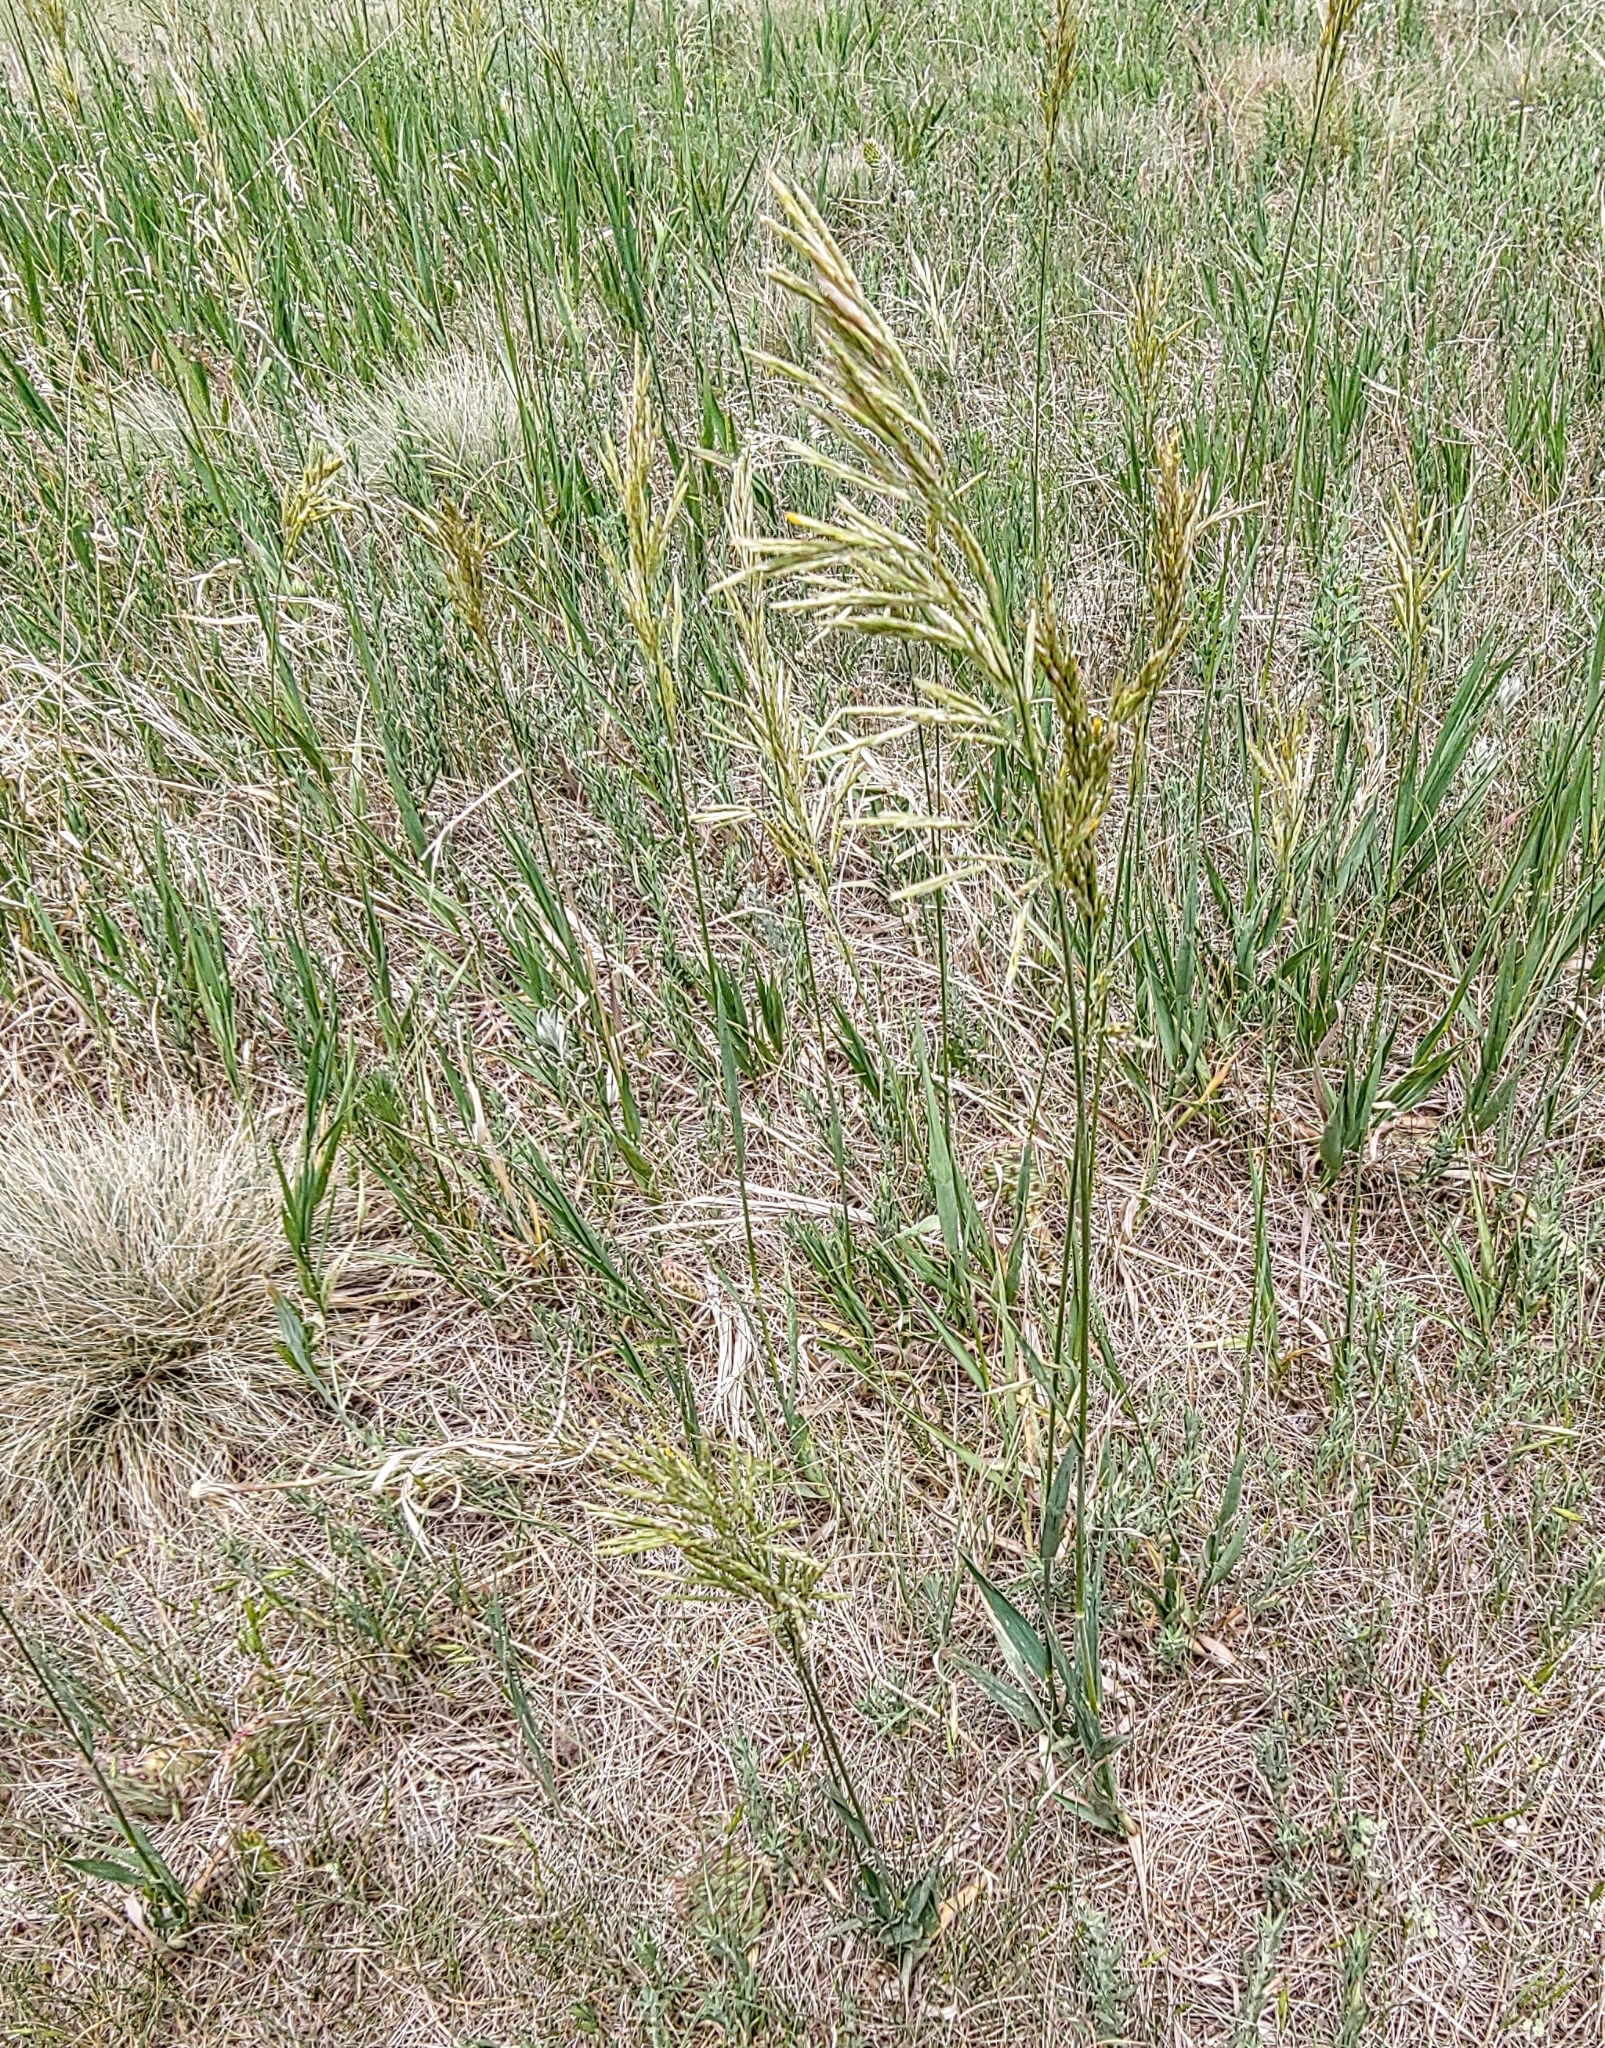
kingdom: Plantae
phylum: Tracheophyta
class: Liliopsida
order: Poales
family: Poaceae
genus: Bromus
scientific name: Bromus inermis
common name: Smooth brome
